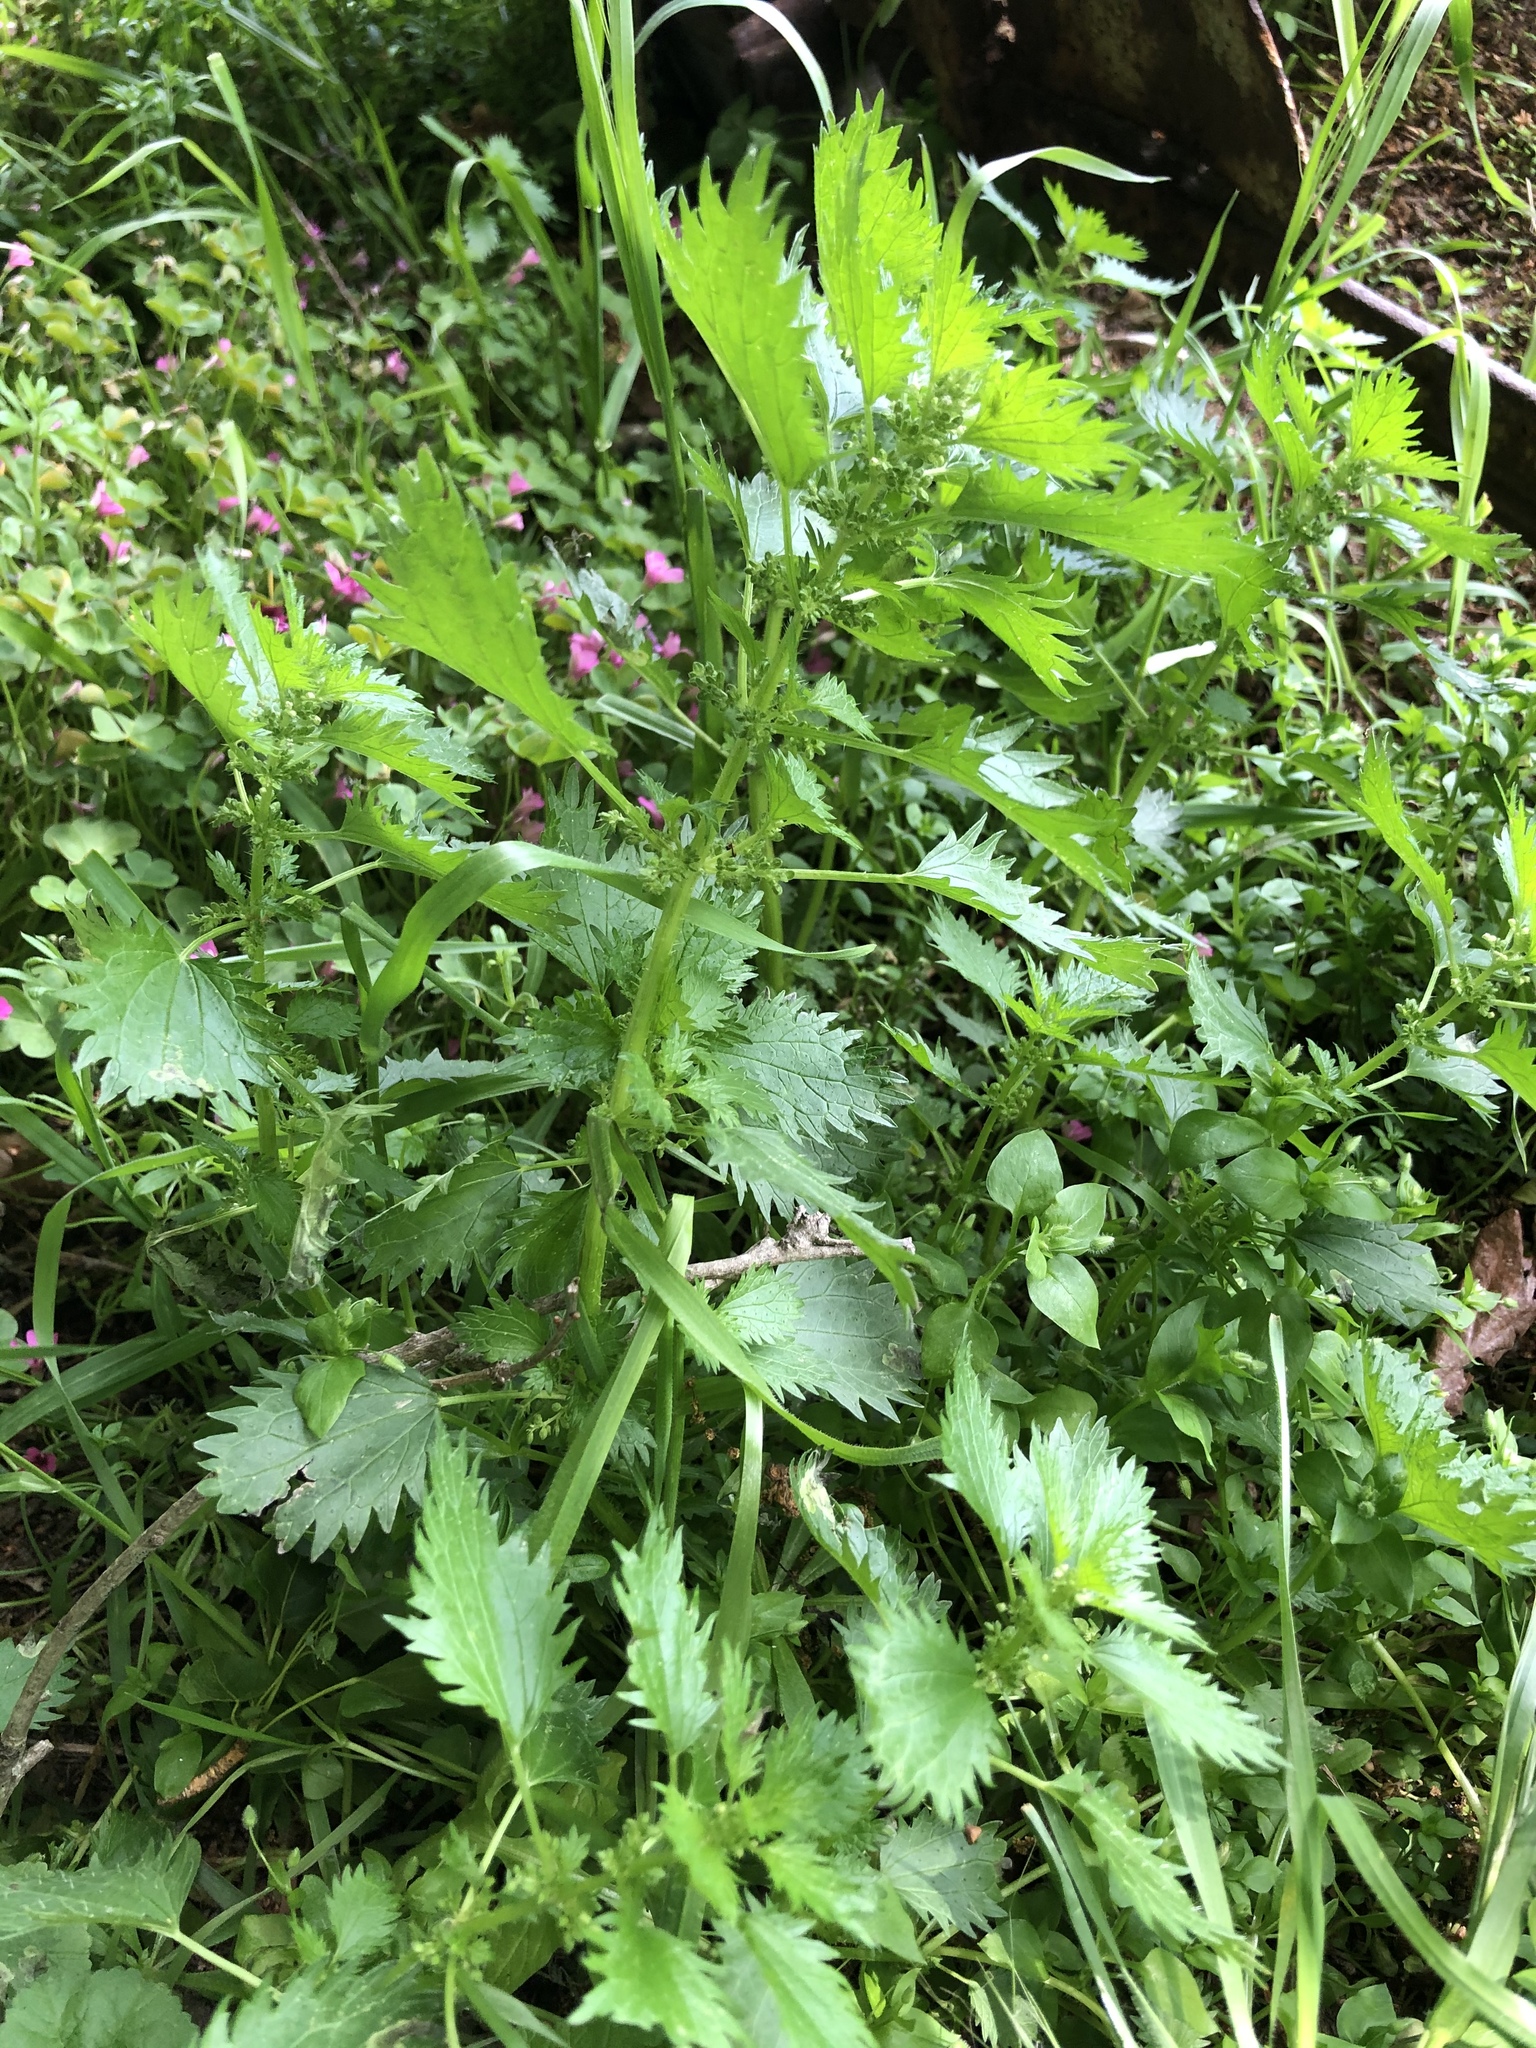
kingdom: Plantae
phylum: Tracheophyta
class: Magnoliopsida
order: Rosales
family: Urticaceae
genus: Urtica
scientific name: Urtica urens
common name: Dwarf nettle
